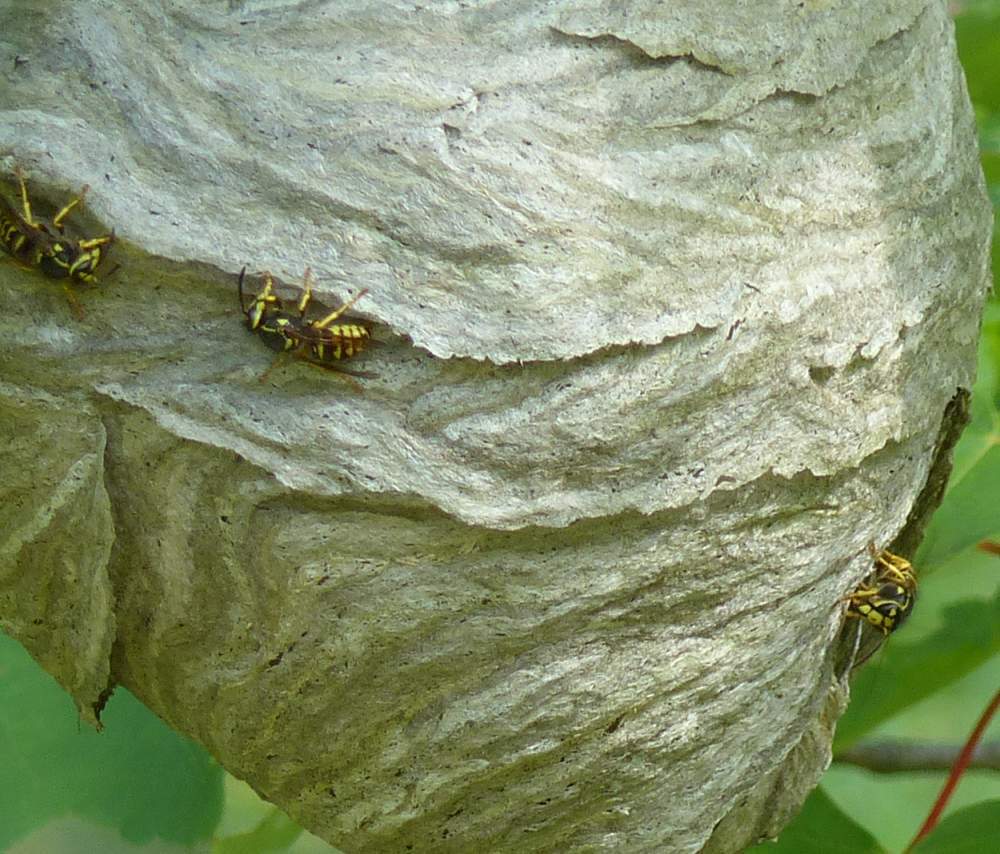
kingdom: Animalia
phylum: Arthropoda
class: Insecta
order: Hymenoptera
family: Vespidae
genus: Dolichovespula
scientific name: Dolichovespula arenaria
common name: Aerial yellowjacket
